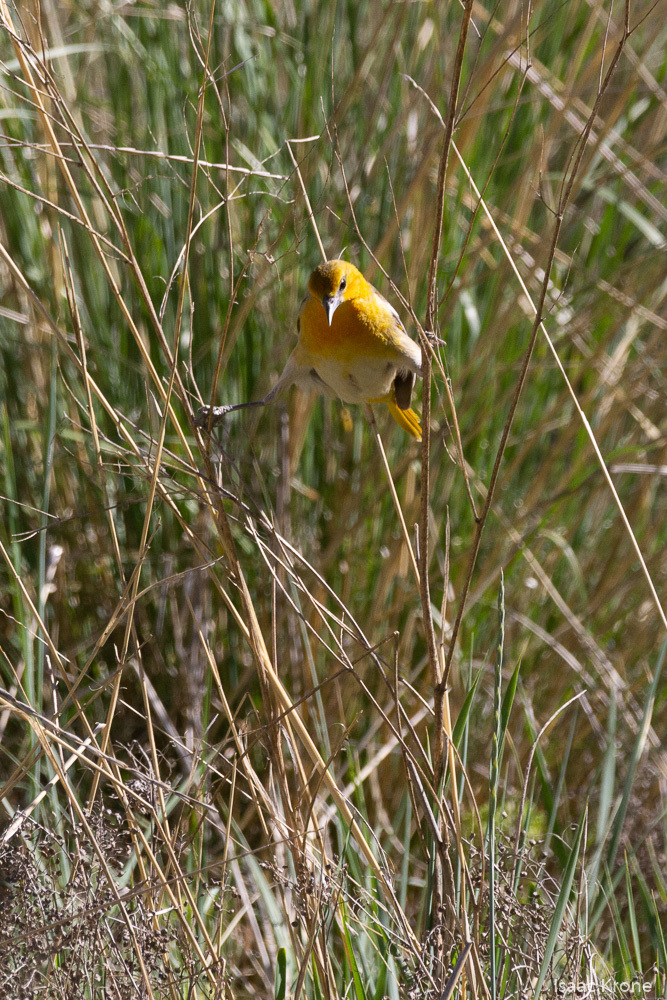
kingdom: Animalia
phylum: Chordata
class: Aves
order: Passeriformes
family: Icteridae
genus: Icterus
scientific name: Icterus bullockii
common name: Bullock's oriole
